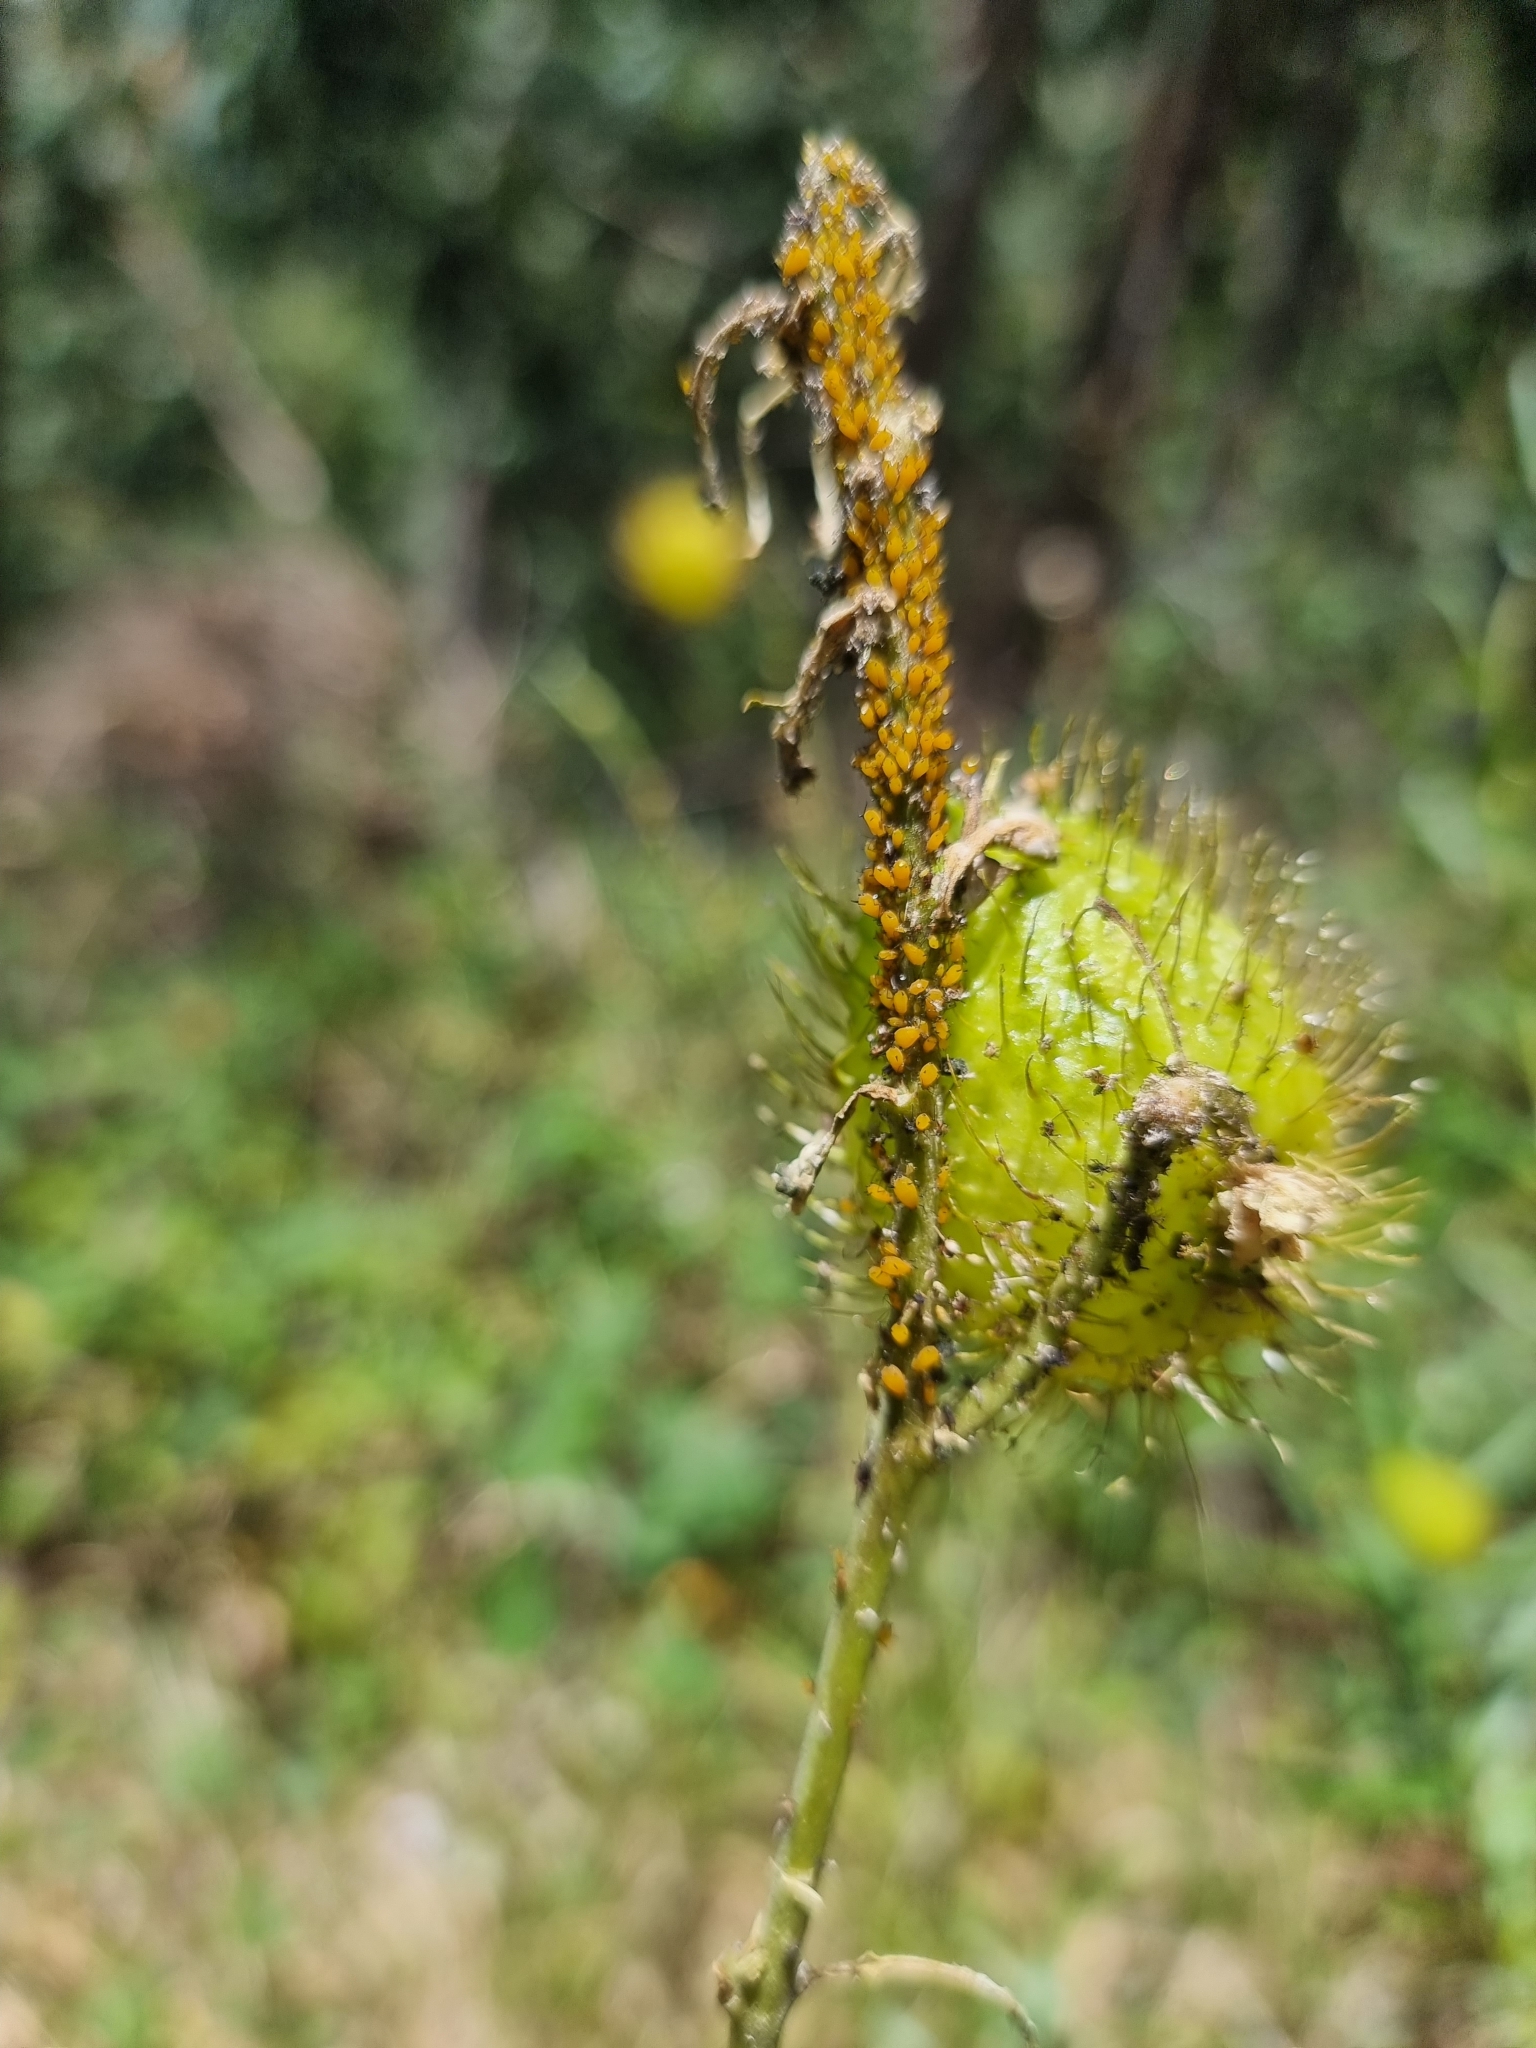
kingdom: Plantae
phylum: Tracheophyta
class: Magnoliopsida
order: Gentianales
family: Apocynaceae
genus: Gomphocarpus
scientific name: Gomphocarpus physocarpus
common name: Balloon cotton bush
